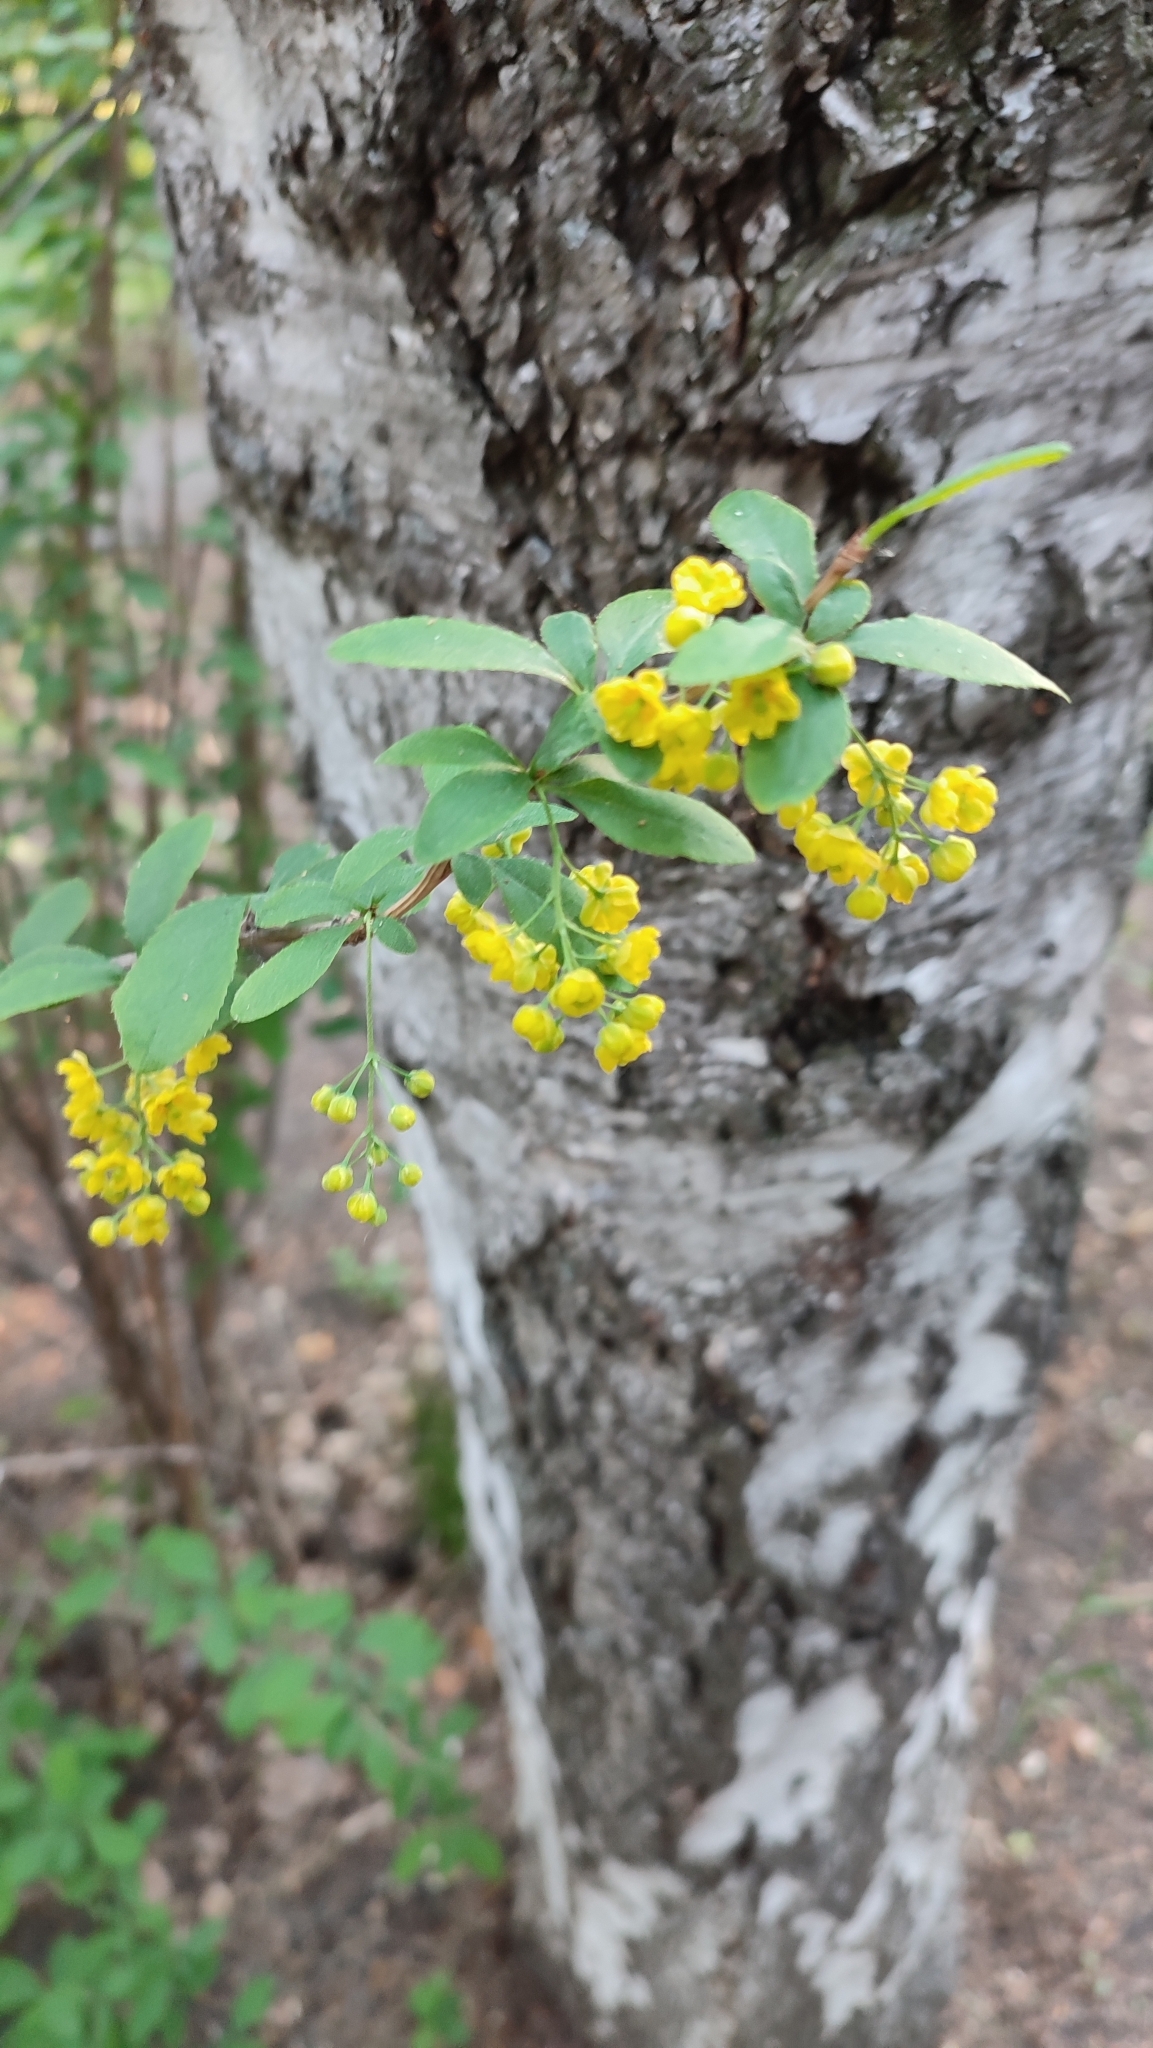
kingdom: Plantae
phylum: Tracheophyta
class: Magnoliopsida
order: Ranunculales
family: Berberidaceae
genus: Berberis
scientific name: Berberis vulgaris
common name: Barberry
